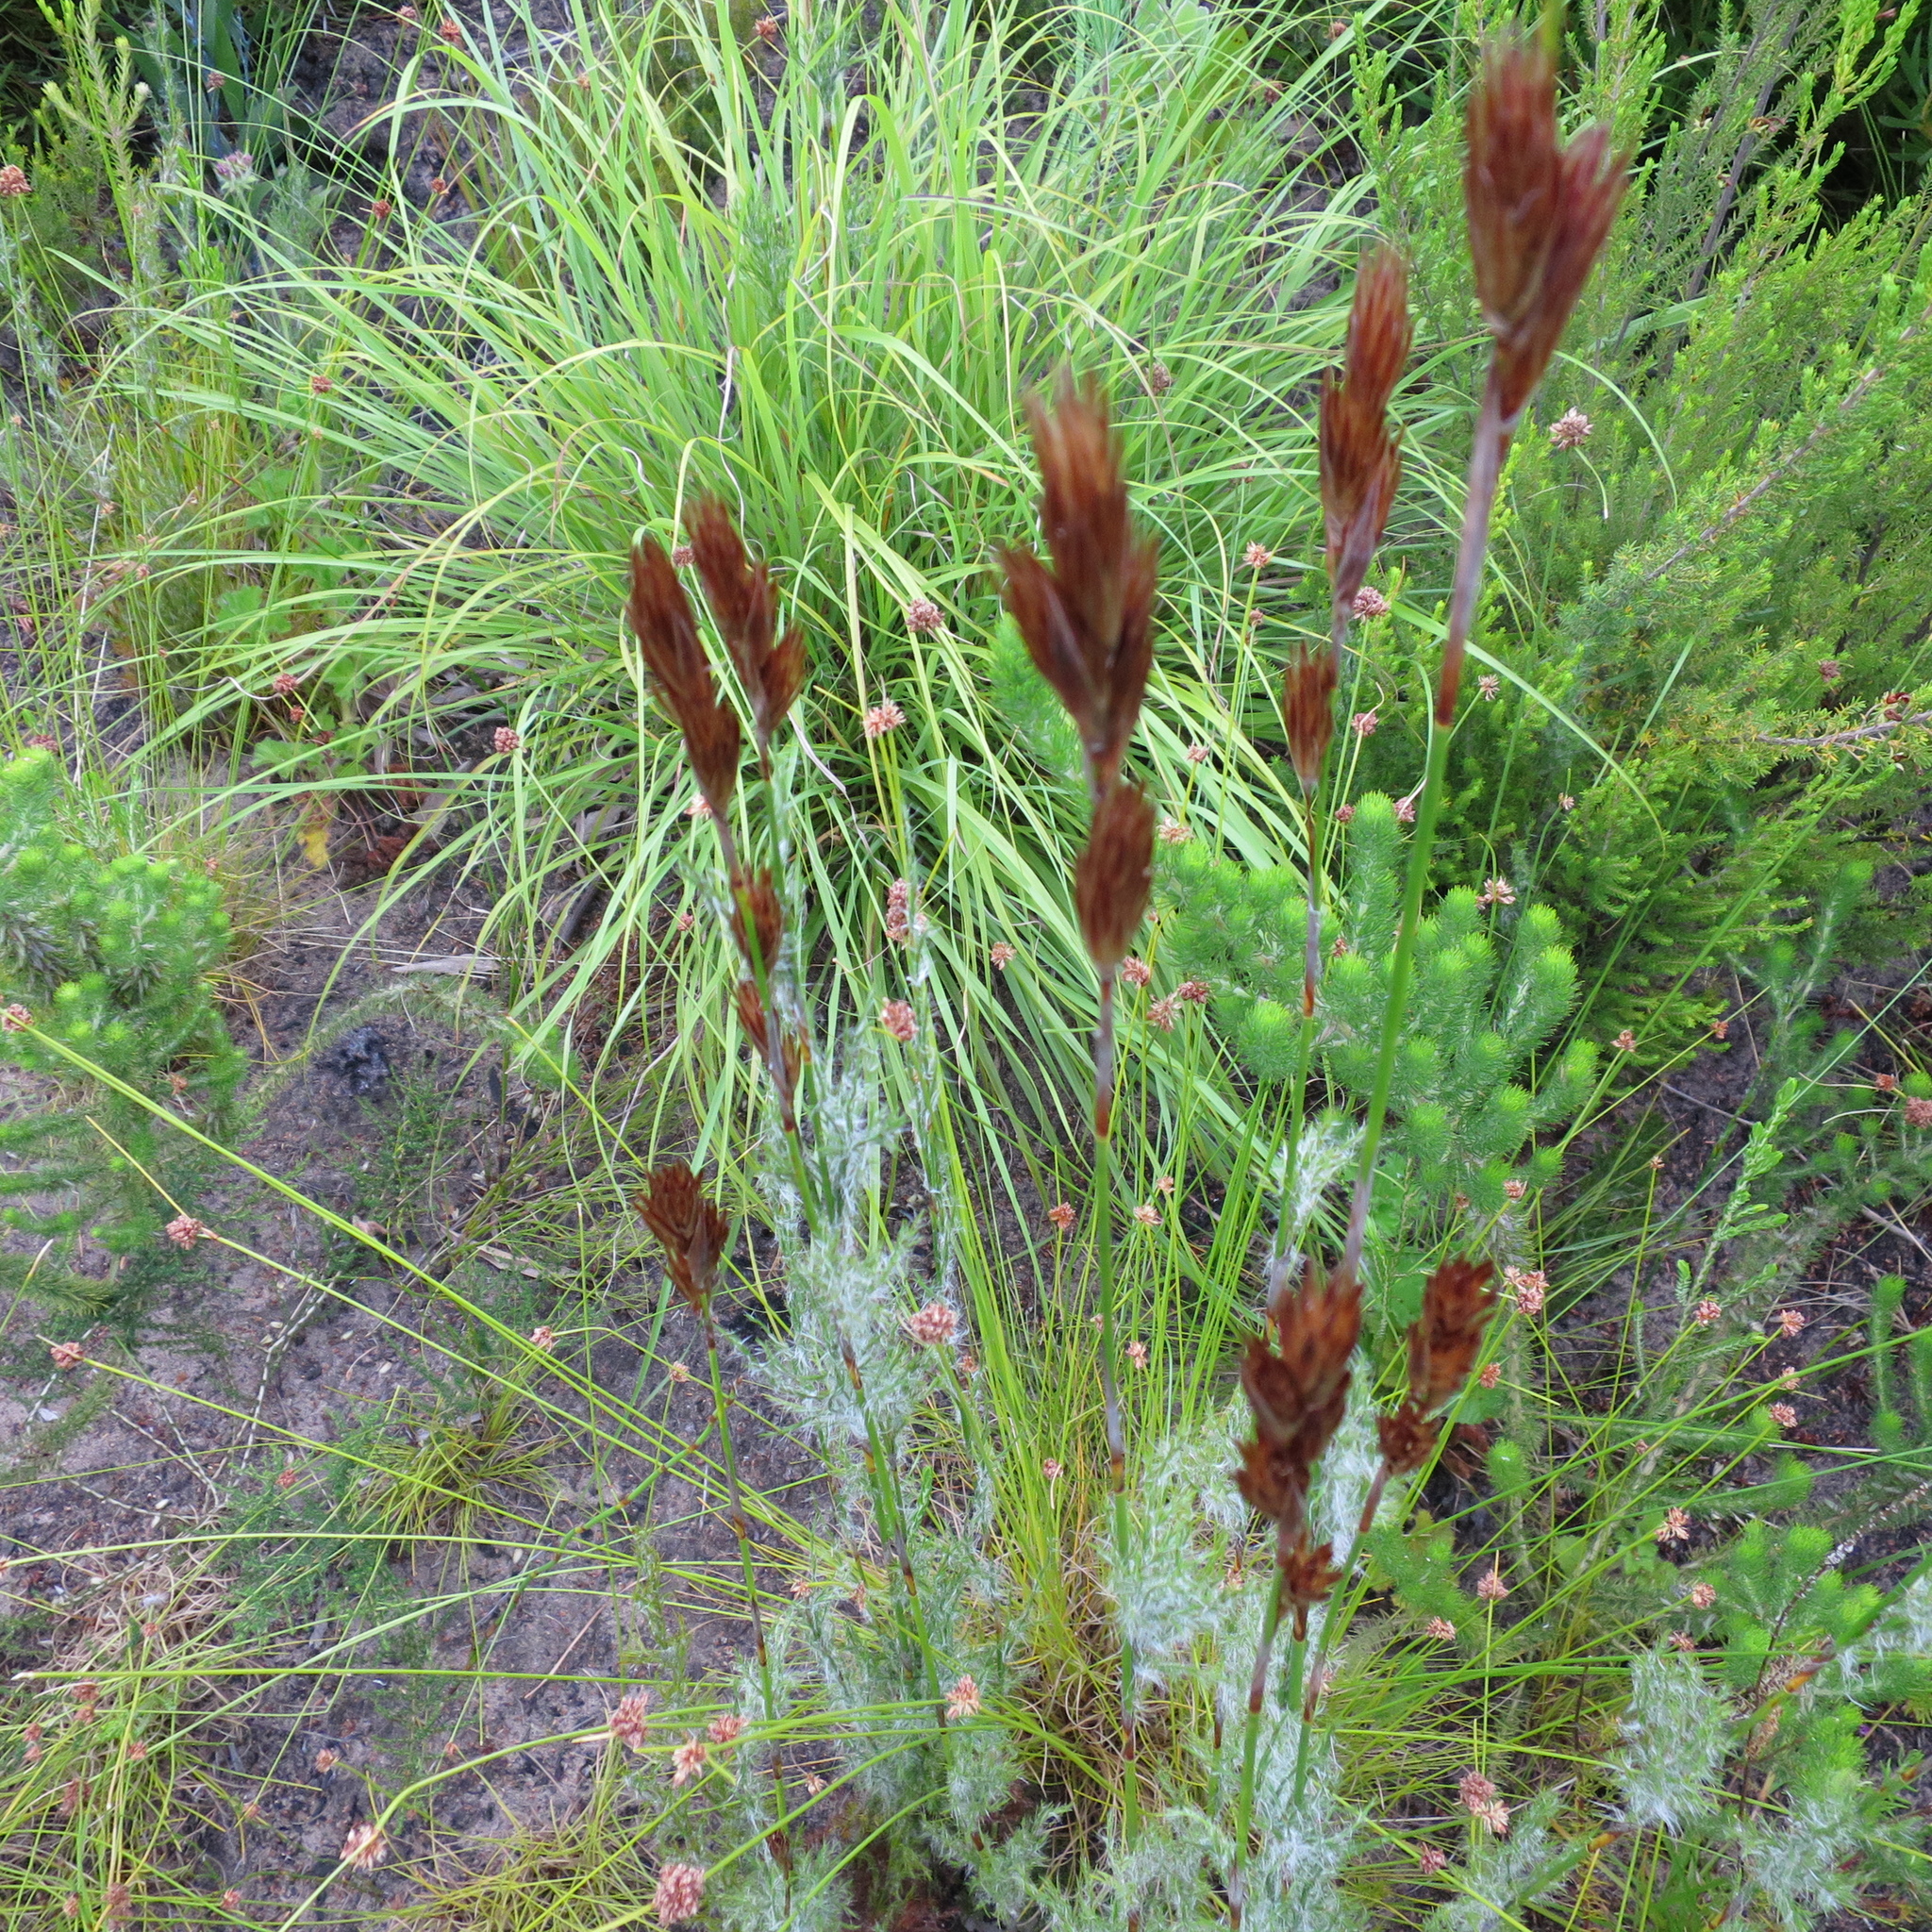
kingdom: Plantae
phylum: Tracheophyta
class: Liliopsida
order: Poales
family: Restionaceae
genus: Thamnochortus
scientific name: Thamnochortus glaber
